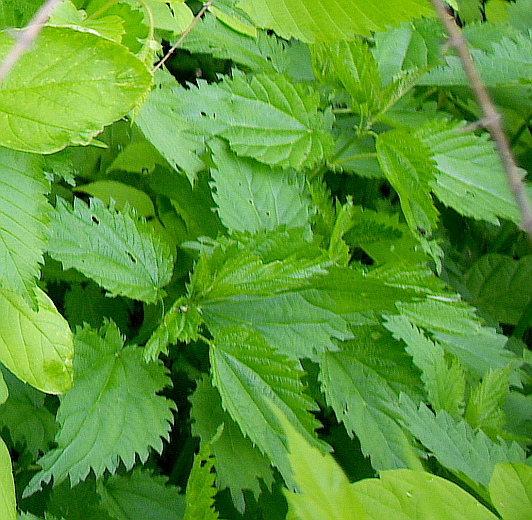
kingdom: Plantae
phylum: Tracheophyta
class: Magnoliopsida
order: Rosales
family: Urticaceae
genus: Urtica
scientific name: Urtica dioica
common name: Common nettle
